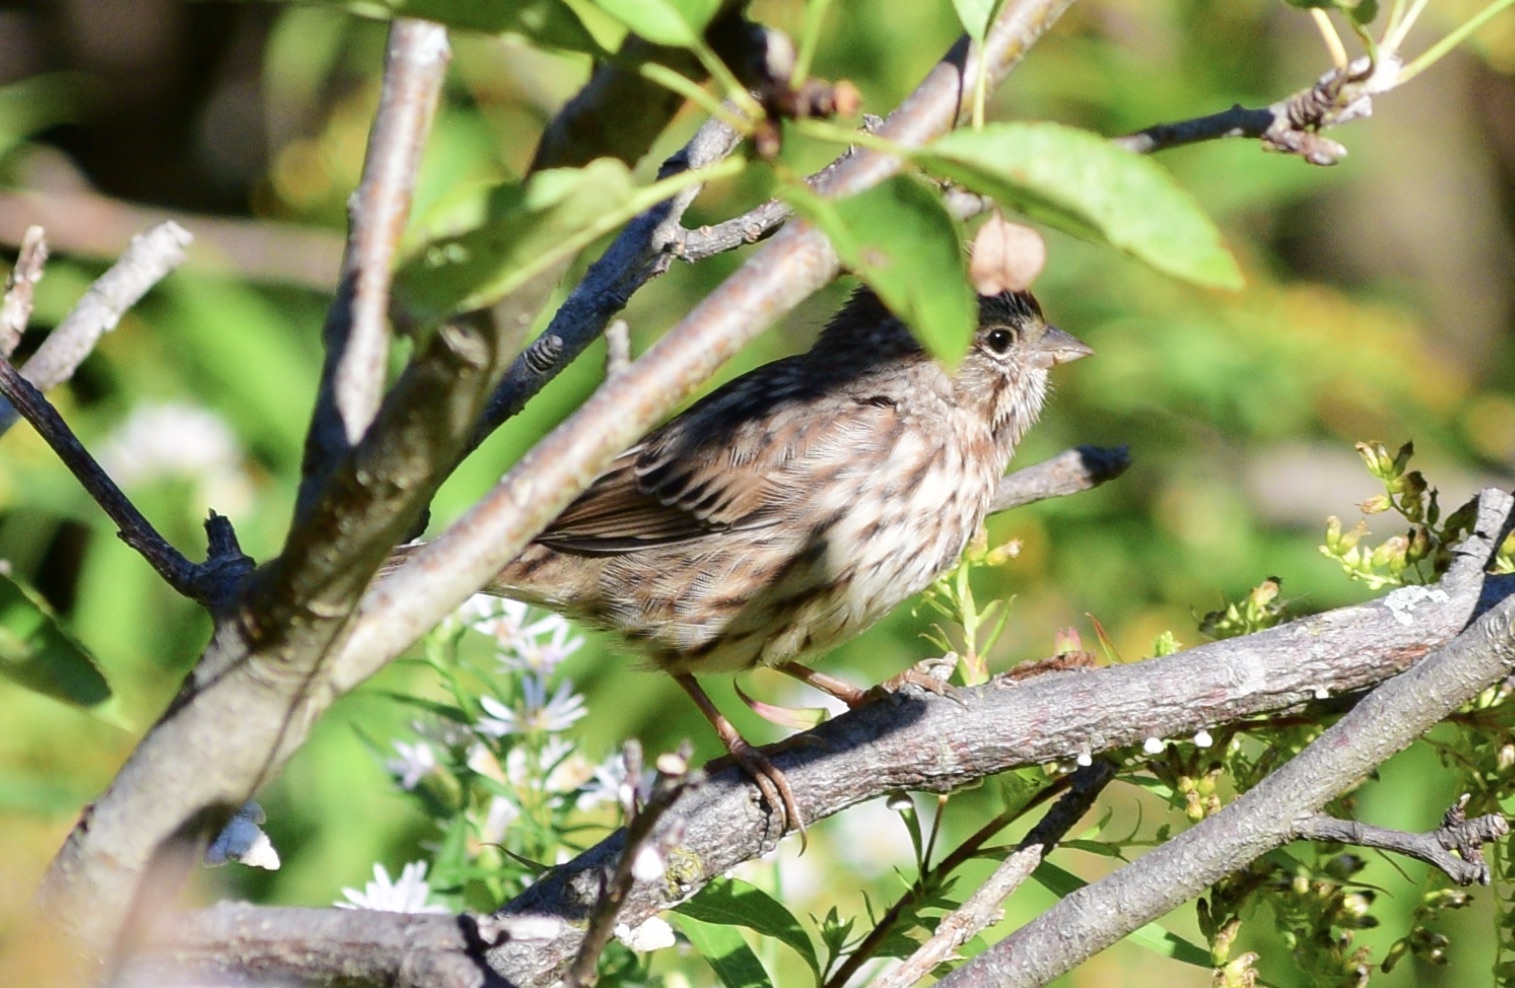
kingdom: Animalia
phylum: Chordata
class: Aves
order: Passeriformes
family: Passerellidae
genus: Melospiza
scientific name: Melospiza melodia
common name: Song sparrow
